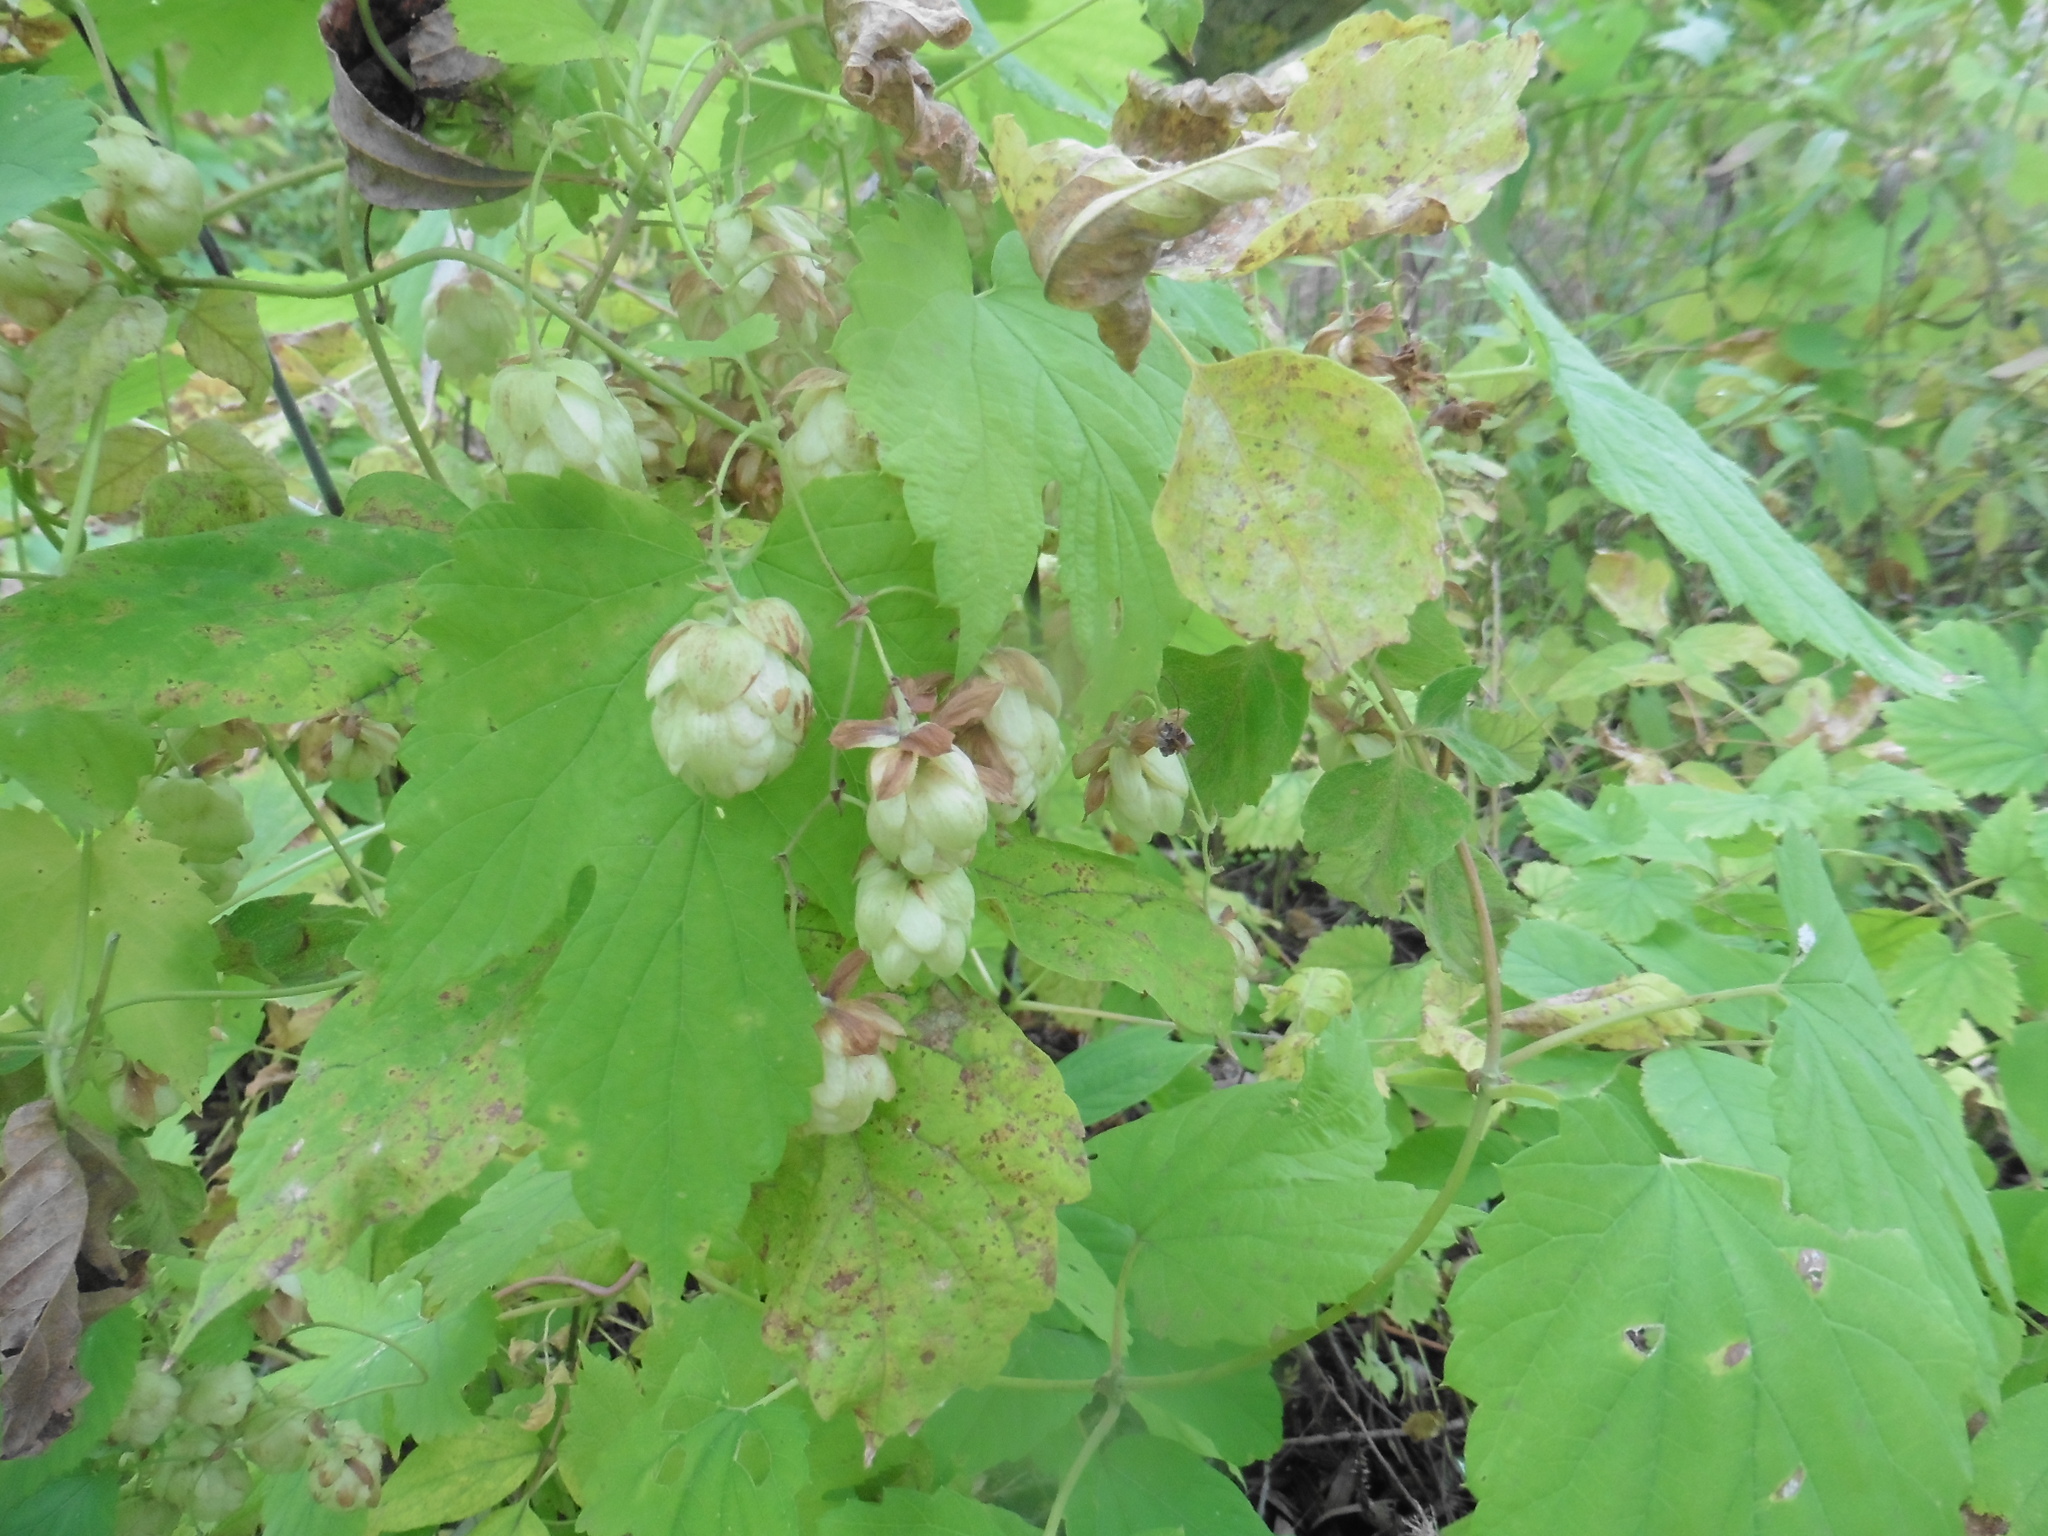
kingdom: Plantae
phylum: Tracheophyta
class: Magnoliopsida
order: Rosales
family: Cannabaceae
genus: Humulus
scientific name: Humulus lupulus
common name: Hop
